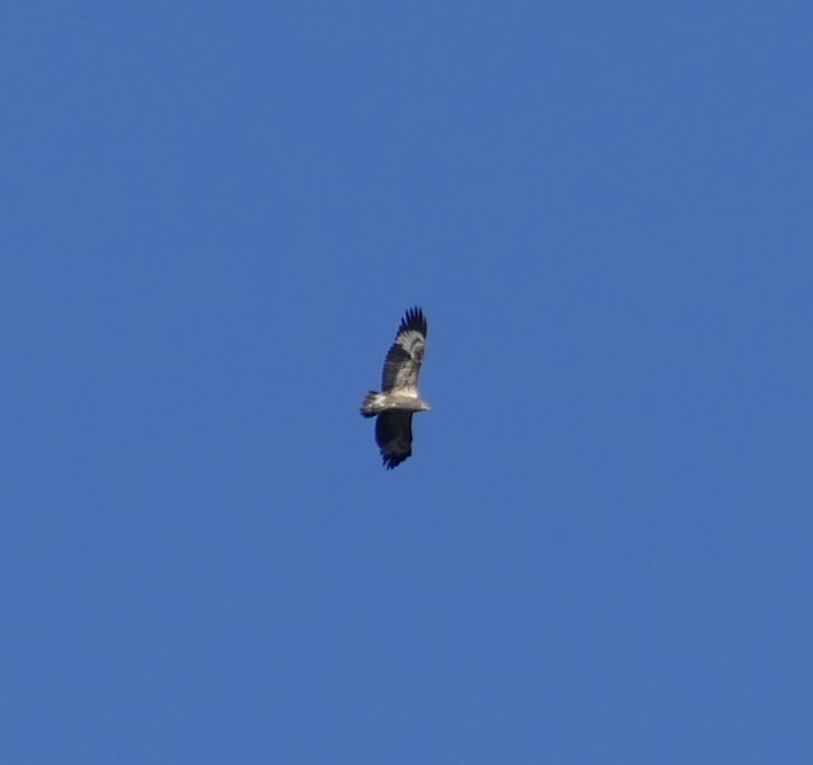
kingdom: Animalia
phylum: Chordata
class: Aves
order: Accipitriformes
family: Accipitridae
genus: Haliaeetus
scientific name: Haliaeetus leucogaster
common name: White-bellied sea eagle
